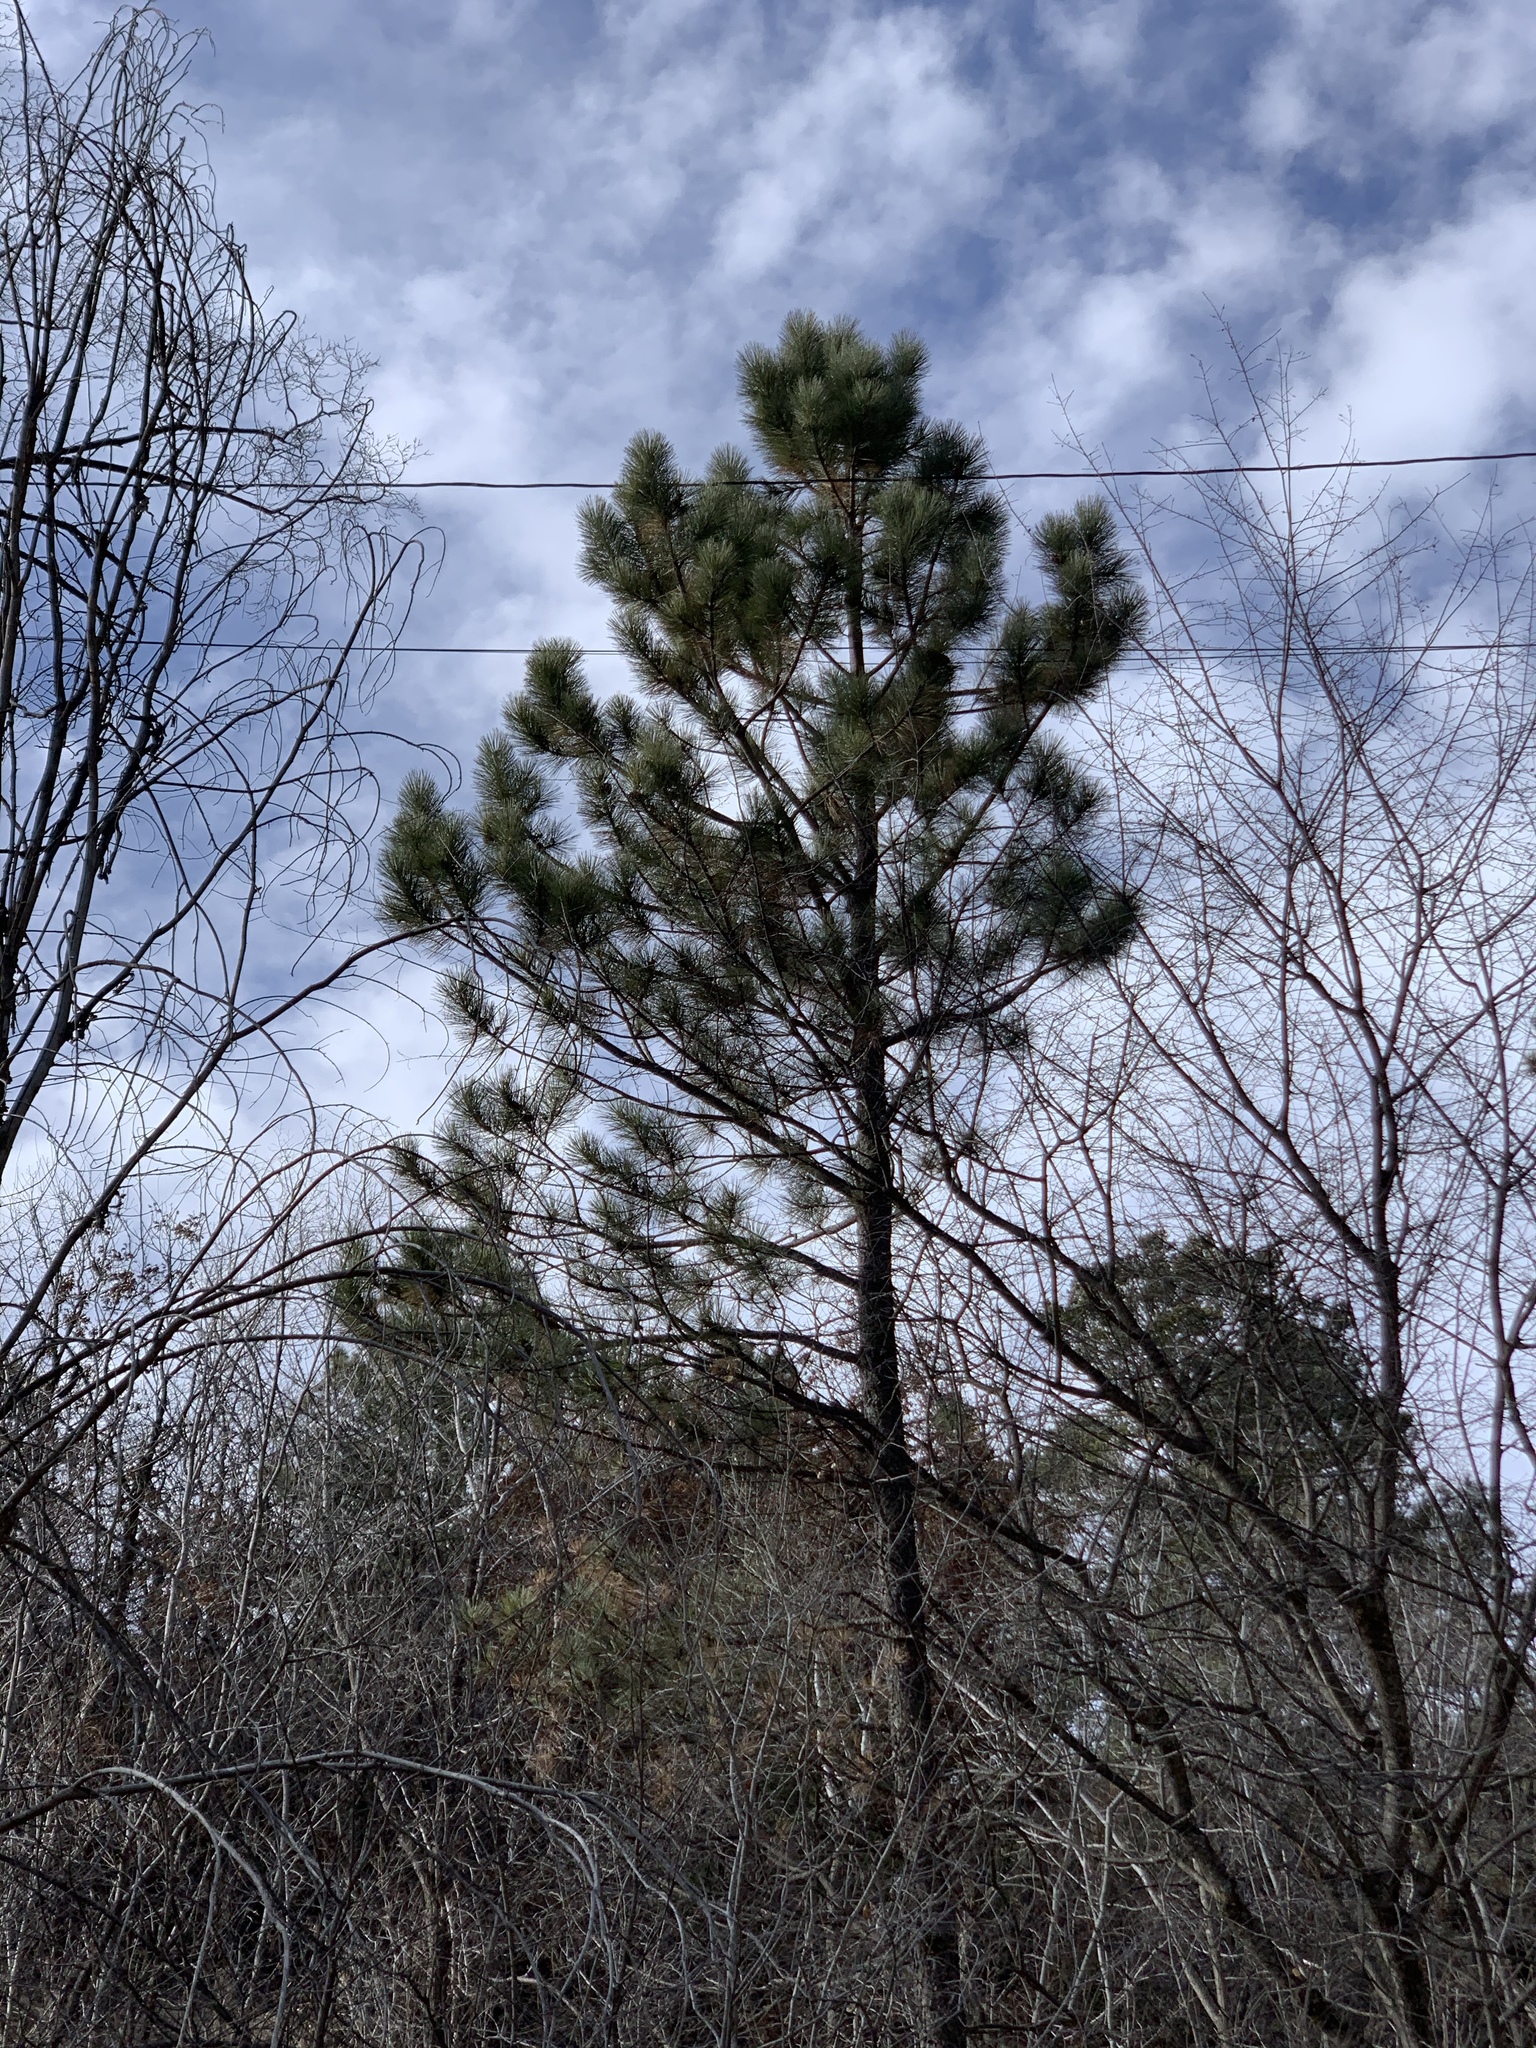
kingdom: Plantae
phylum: Tracheophyta
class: Pinopsida
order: Pinales
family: Pinaceae
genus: Pinus
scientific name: Pinus ponderosa
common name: Western yellow-pine
